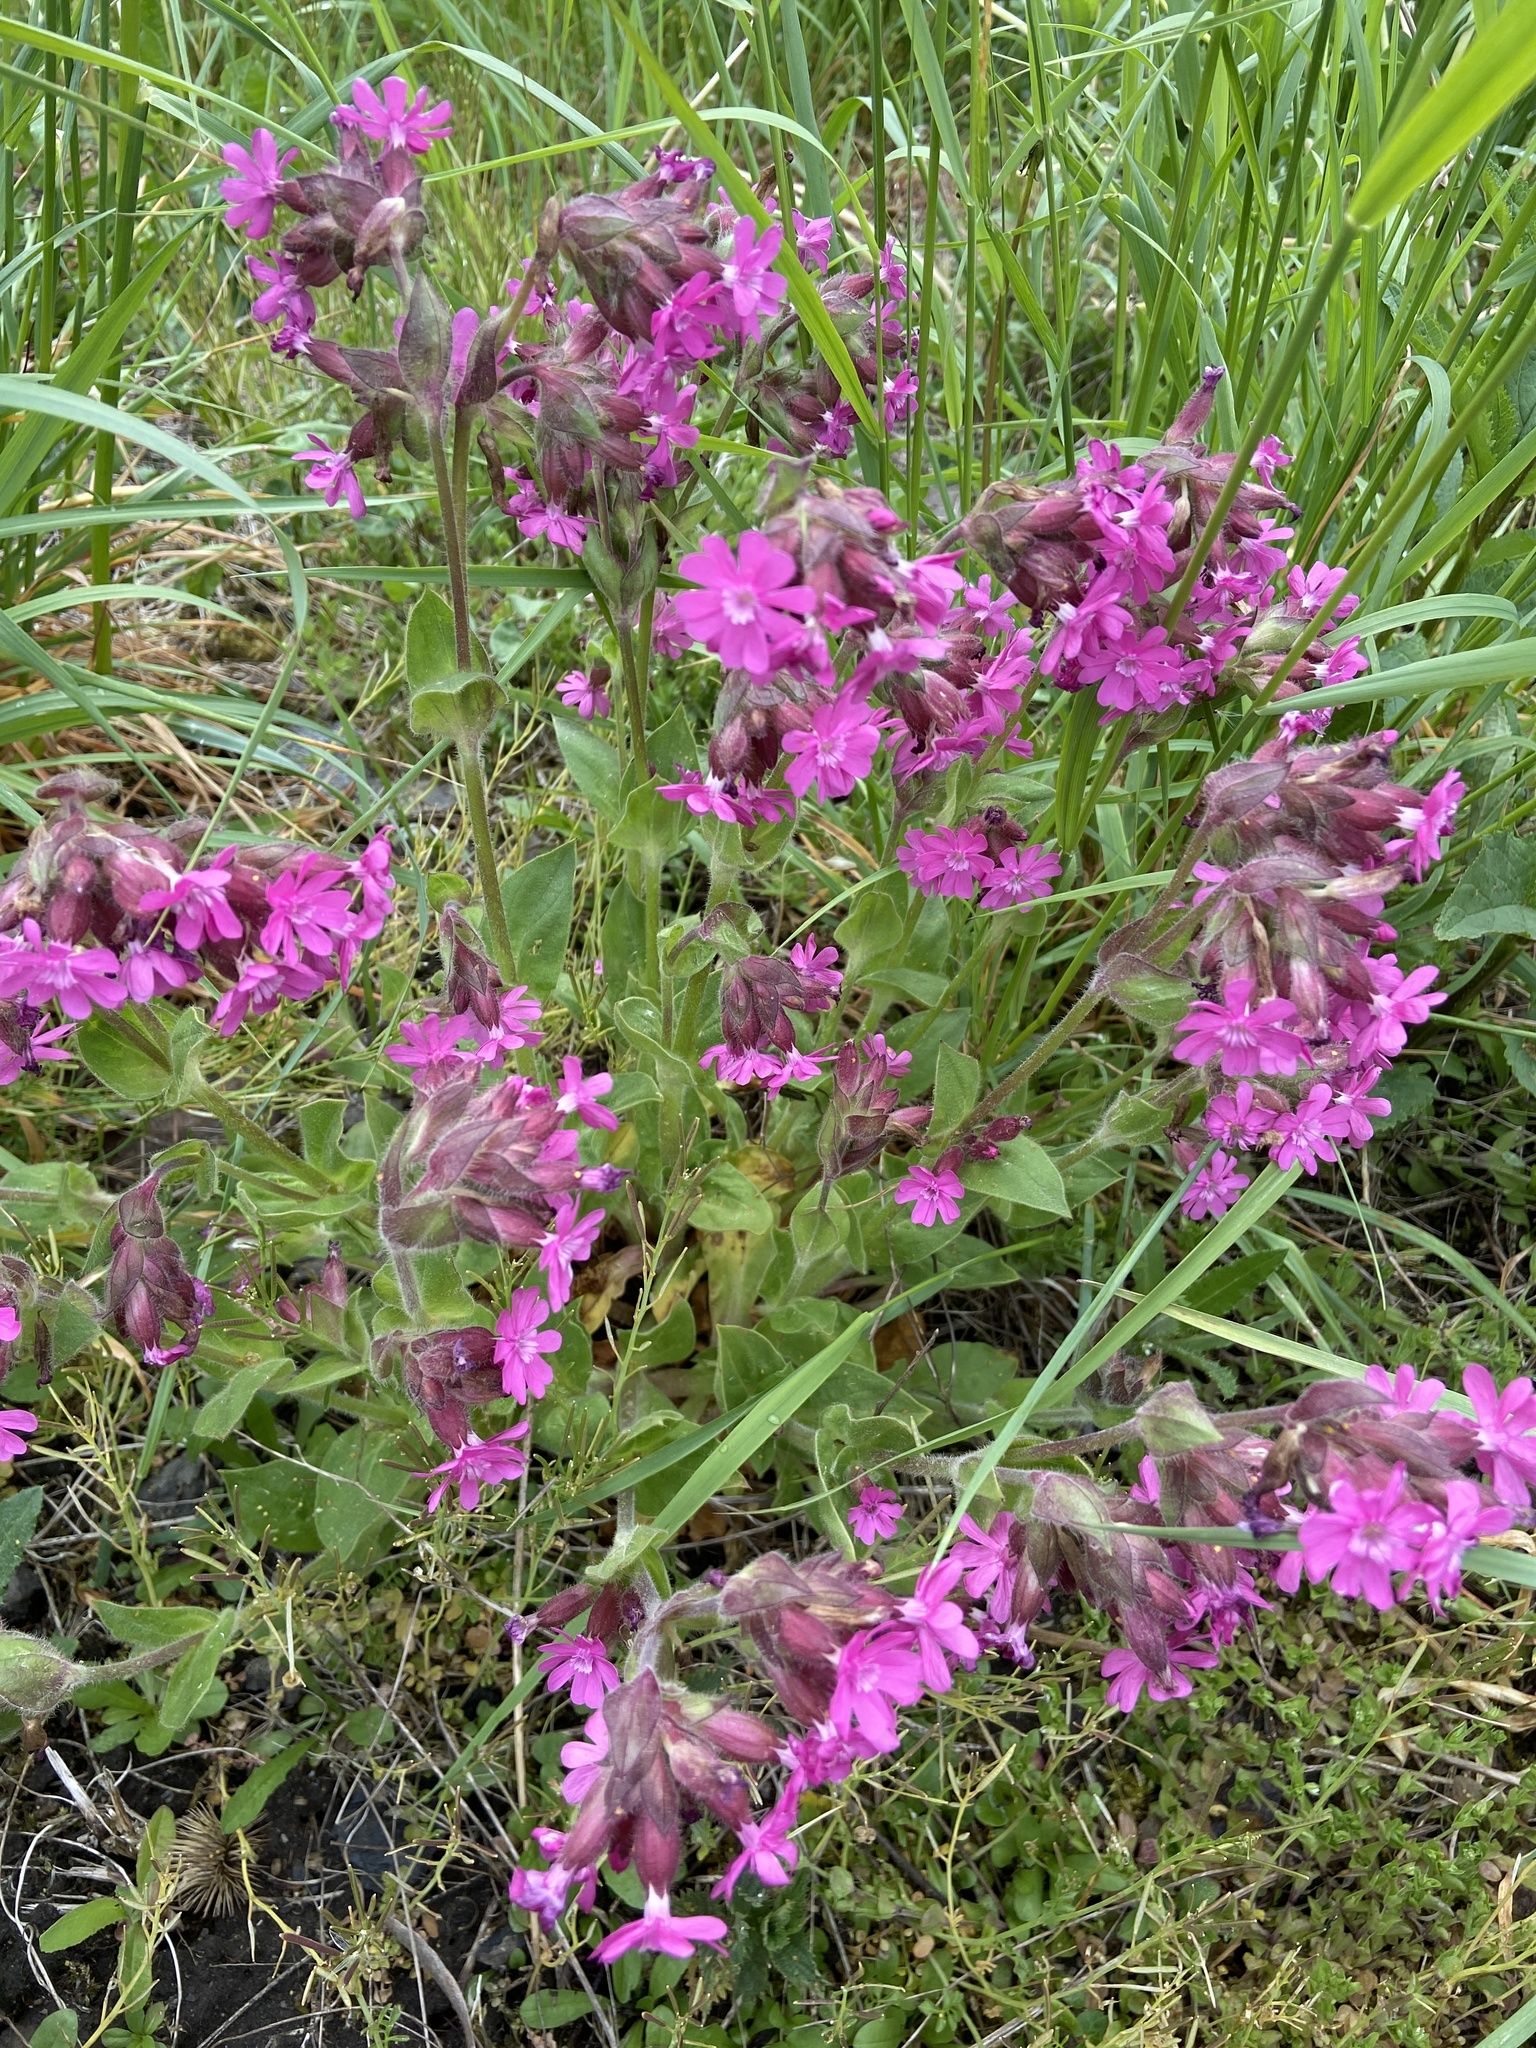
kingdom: Plantae
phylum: Tracheophyta
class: Magnoliopsida
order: Caryophyllales
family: Caryophyllaceae
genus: Silene
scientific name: Silene dioica
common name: Red campion
